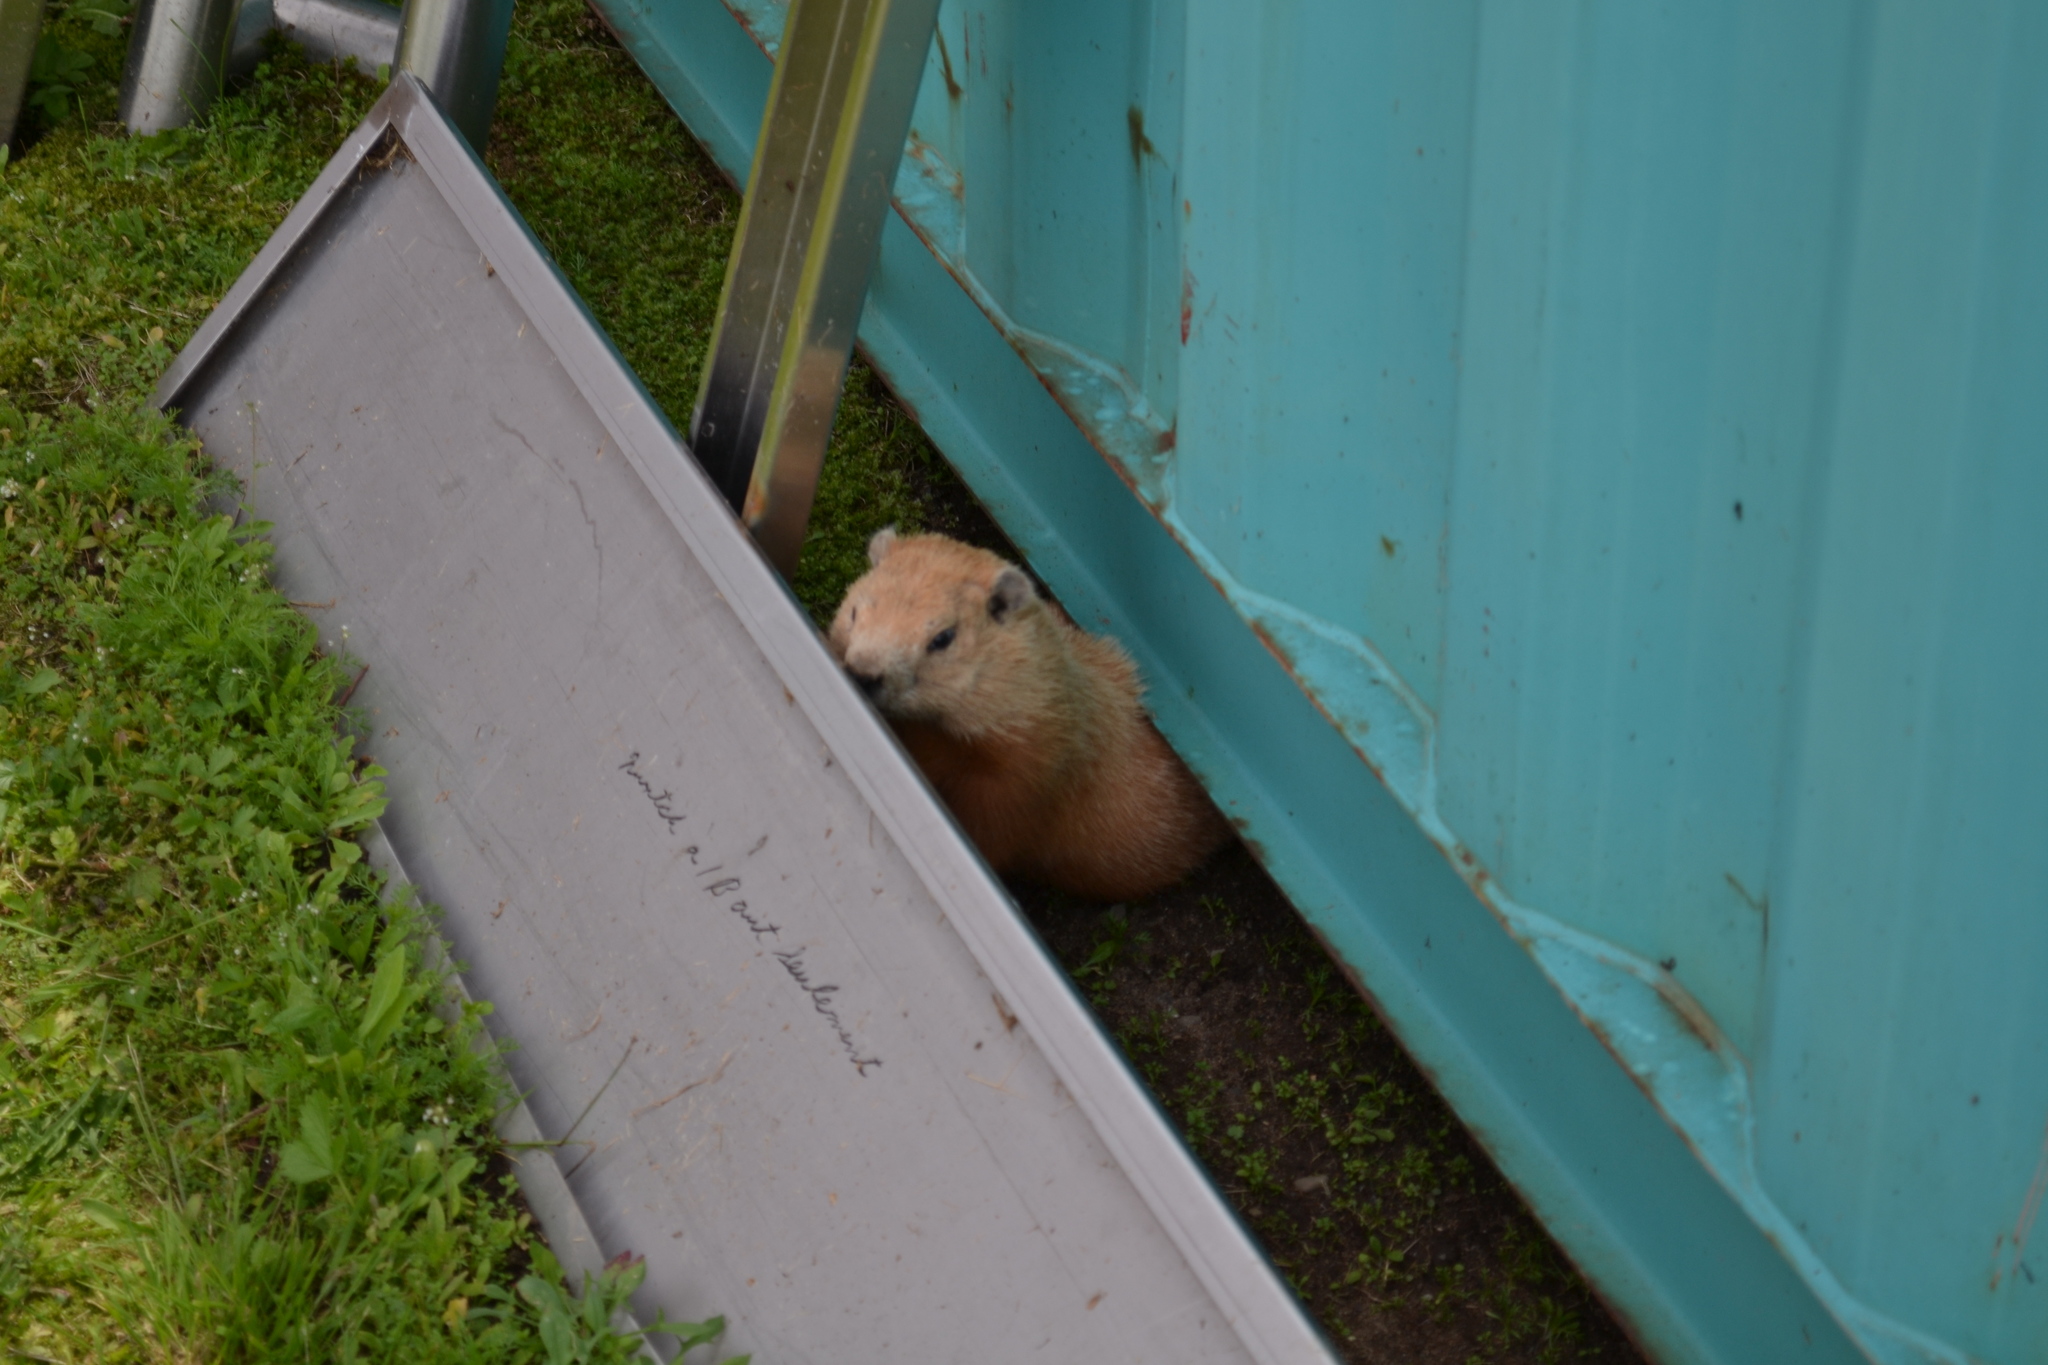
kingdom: Animalia
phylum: Chordata
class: Mammalia
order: Rodentia
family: Sciuridae
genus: Marmota
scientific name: Marmota monax
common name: Groundhog
